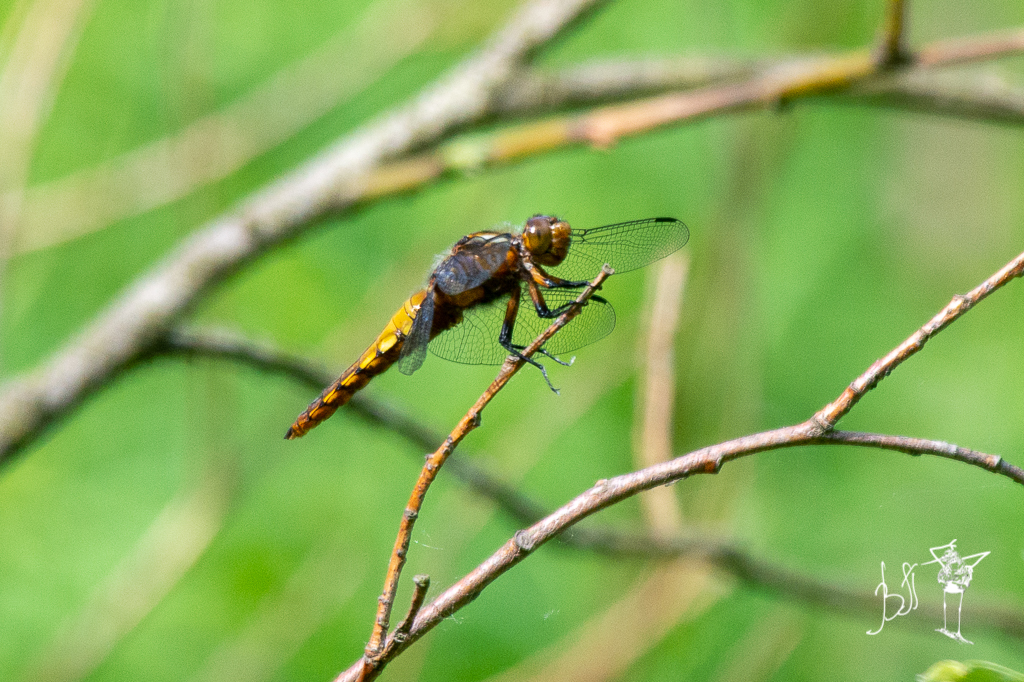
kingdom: Animalia
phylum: Arthropoda
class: Insecta
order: Odonata
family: Libellulidae
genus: Libellula
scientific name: Libellula depressa
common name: Broad-bodied chaser
